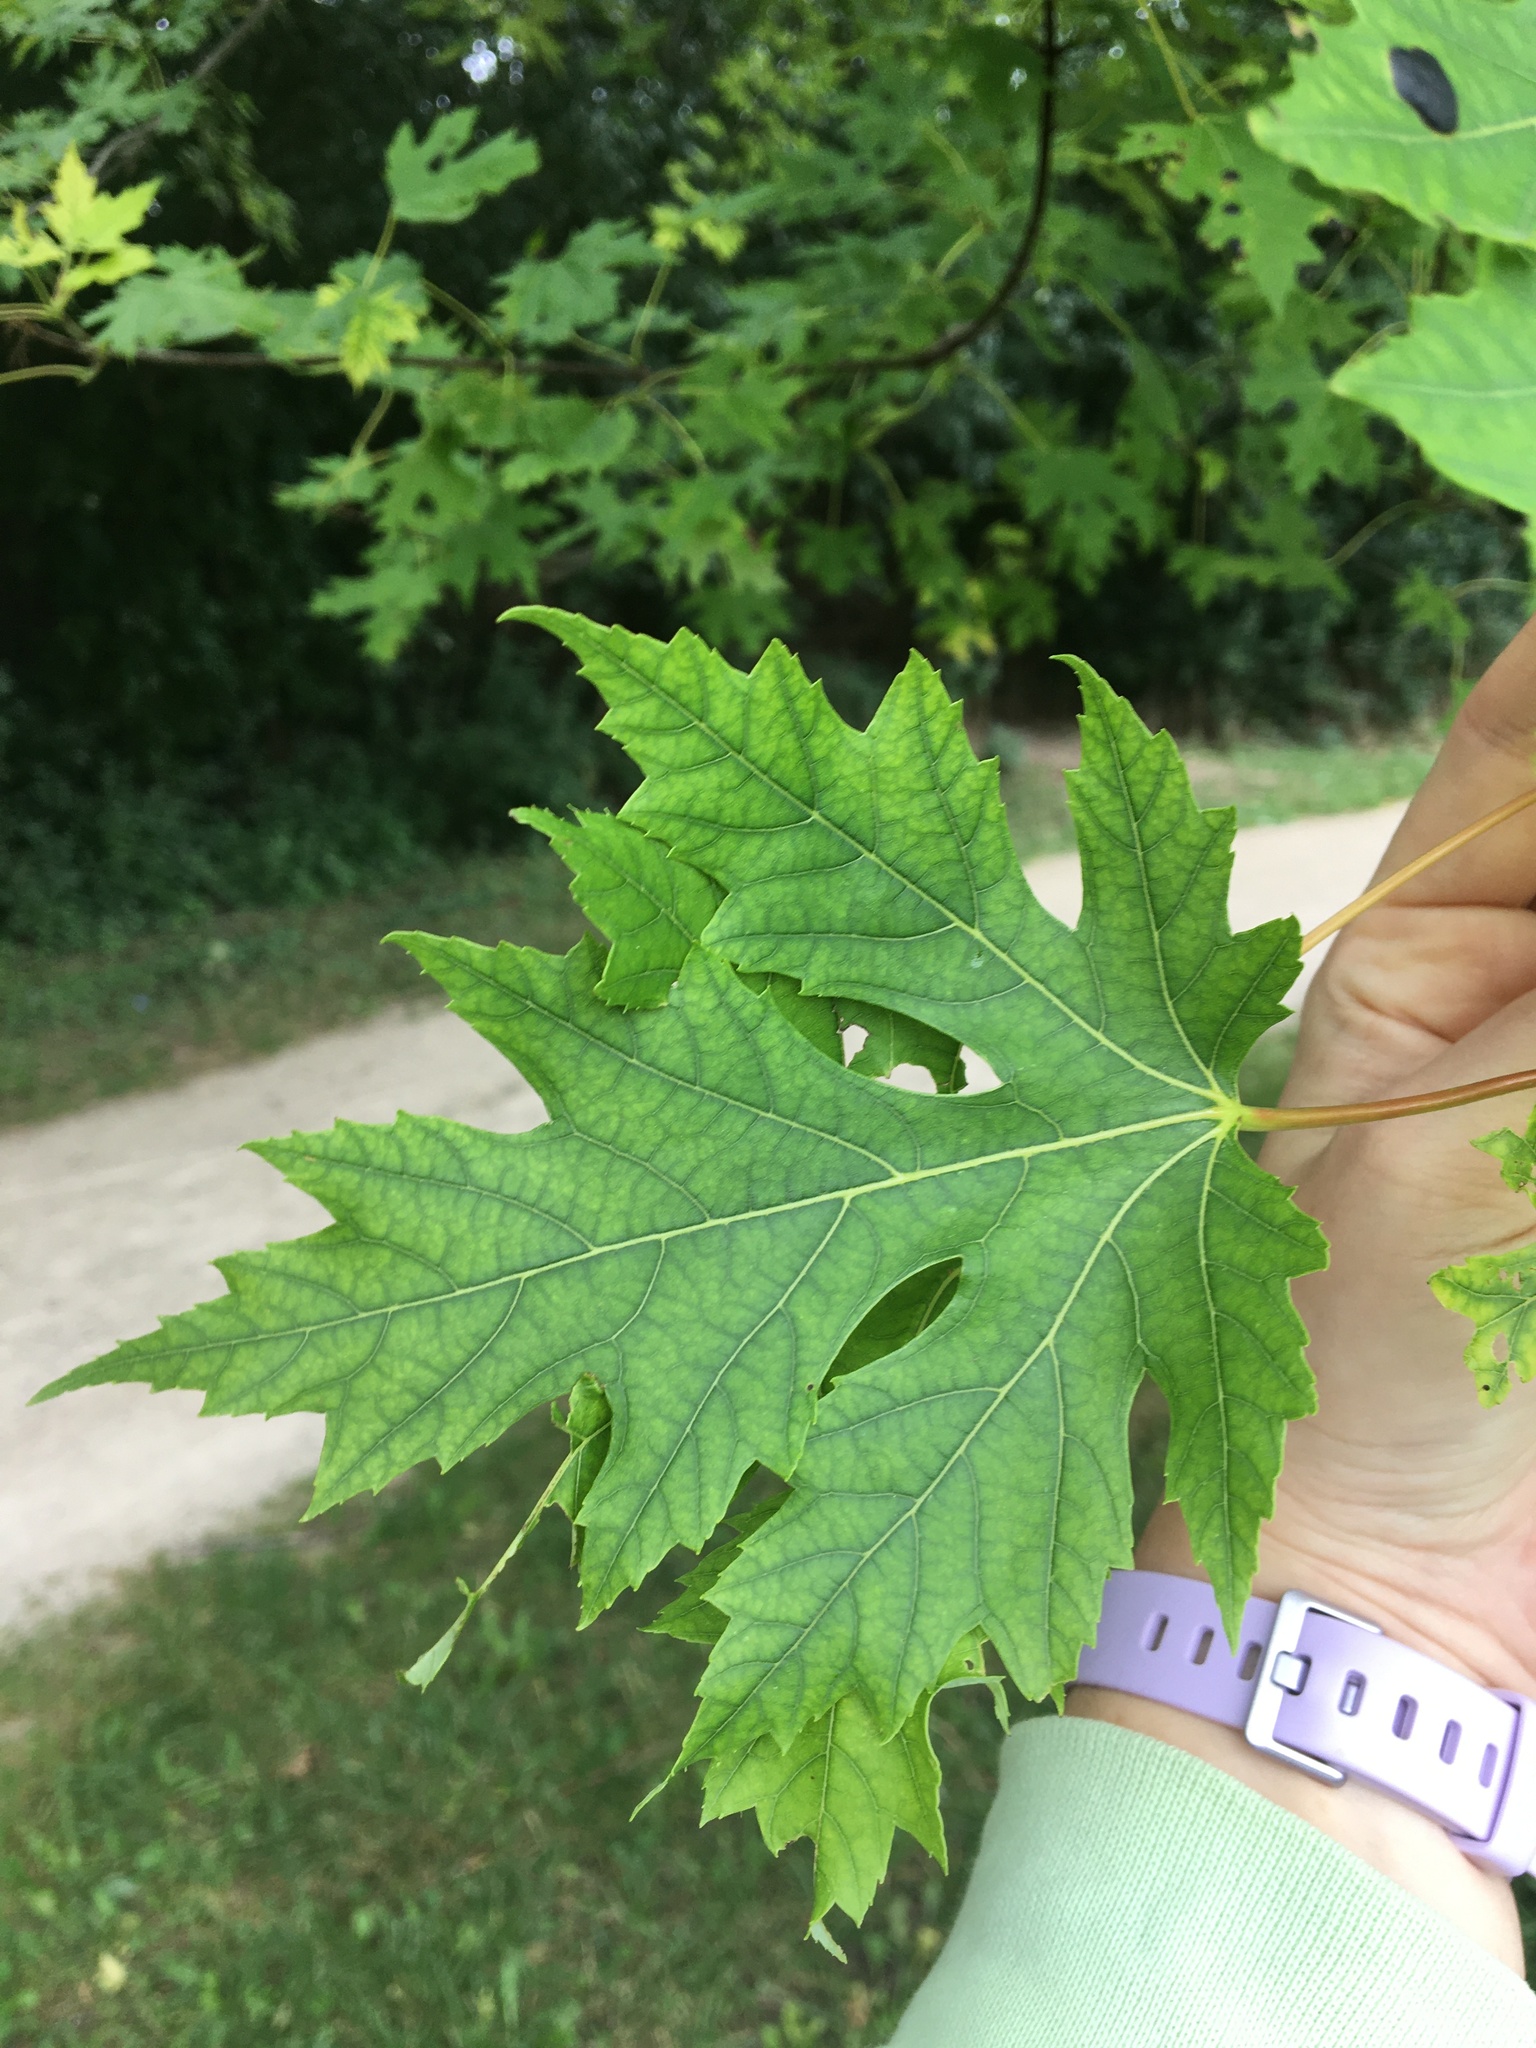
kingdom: Plantae
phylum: Tracheophyta
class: Magnoliopsida
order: Sapindales
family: Sapindaceae
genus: Acer
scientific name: Acer saccharinum
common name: Silver maple
